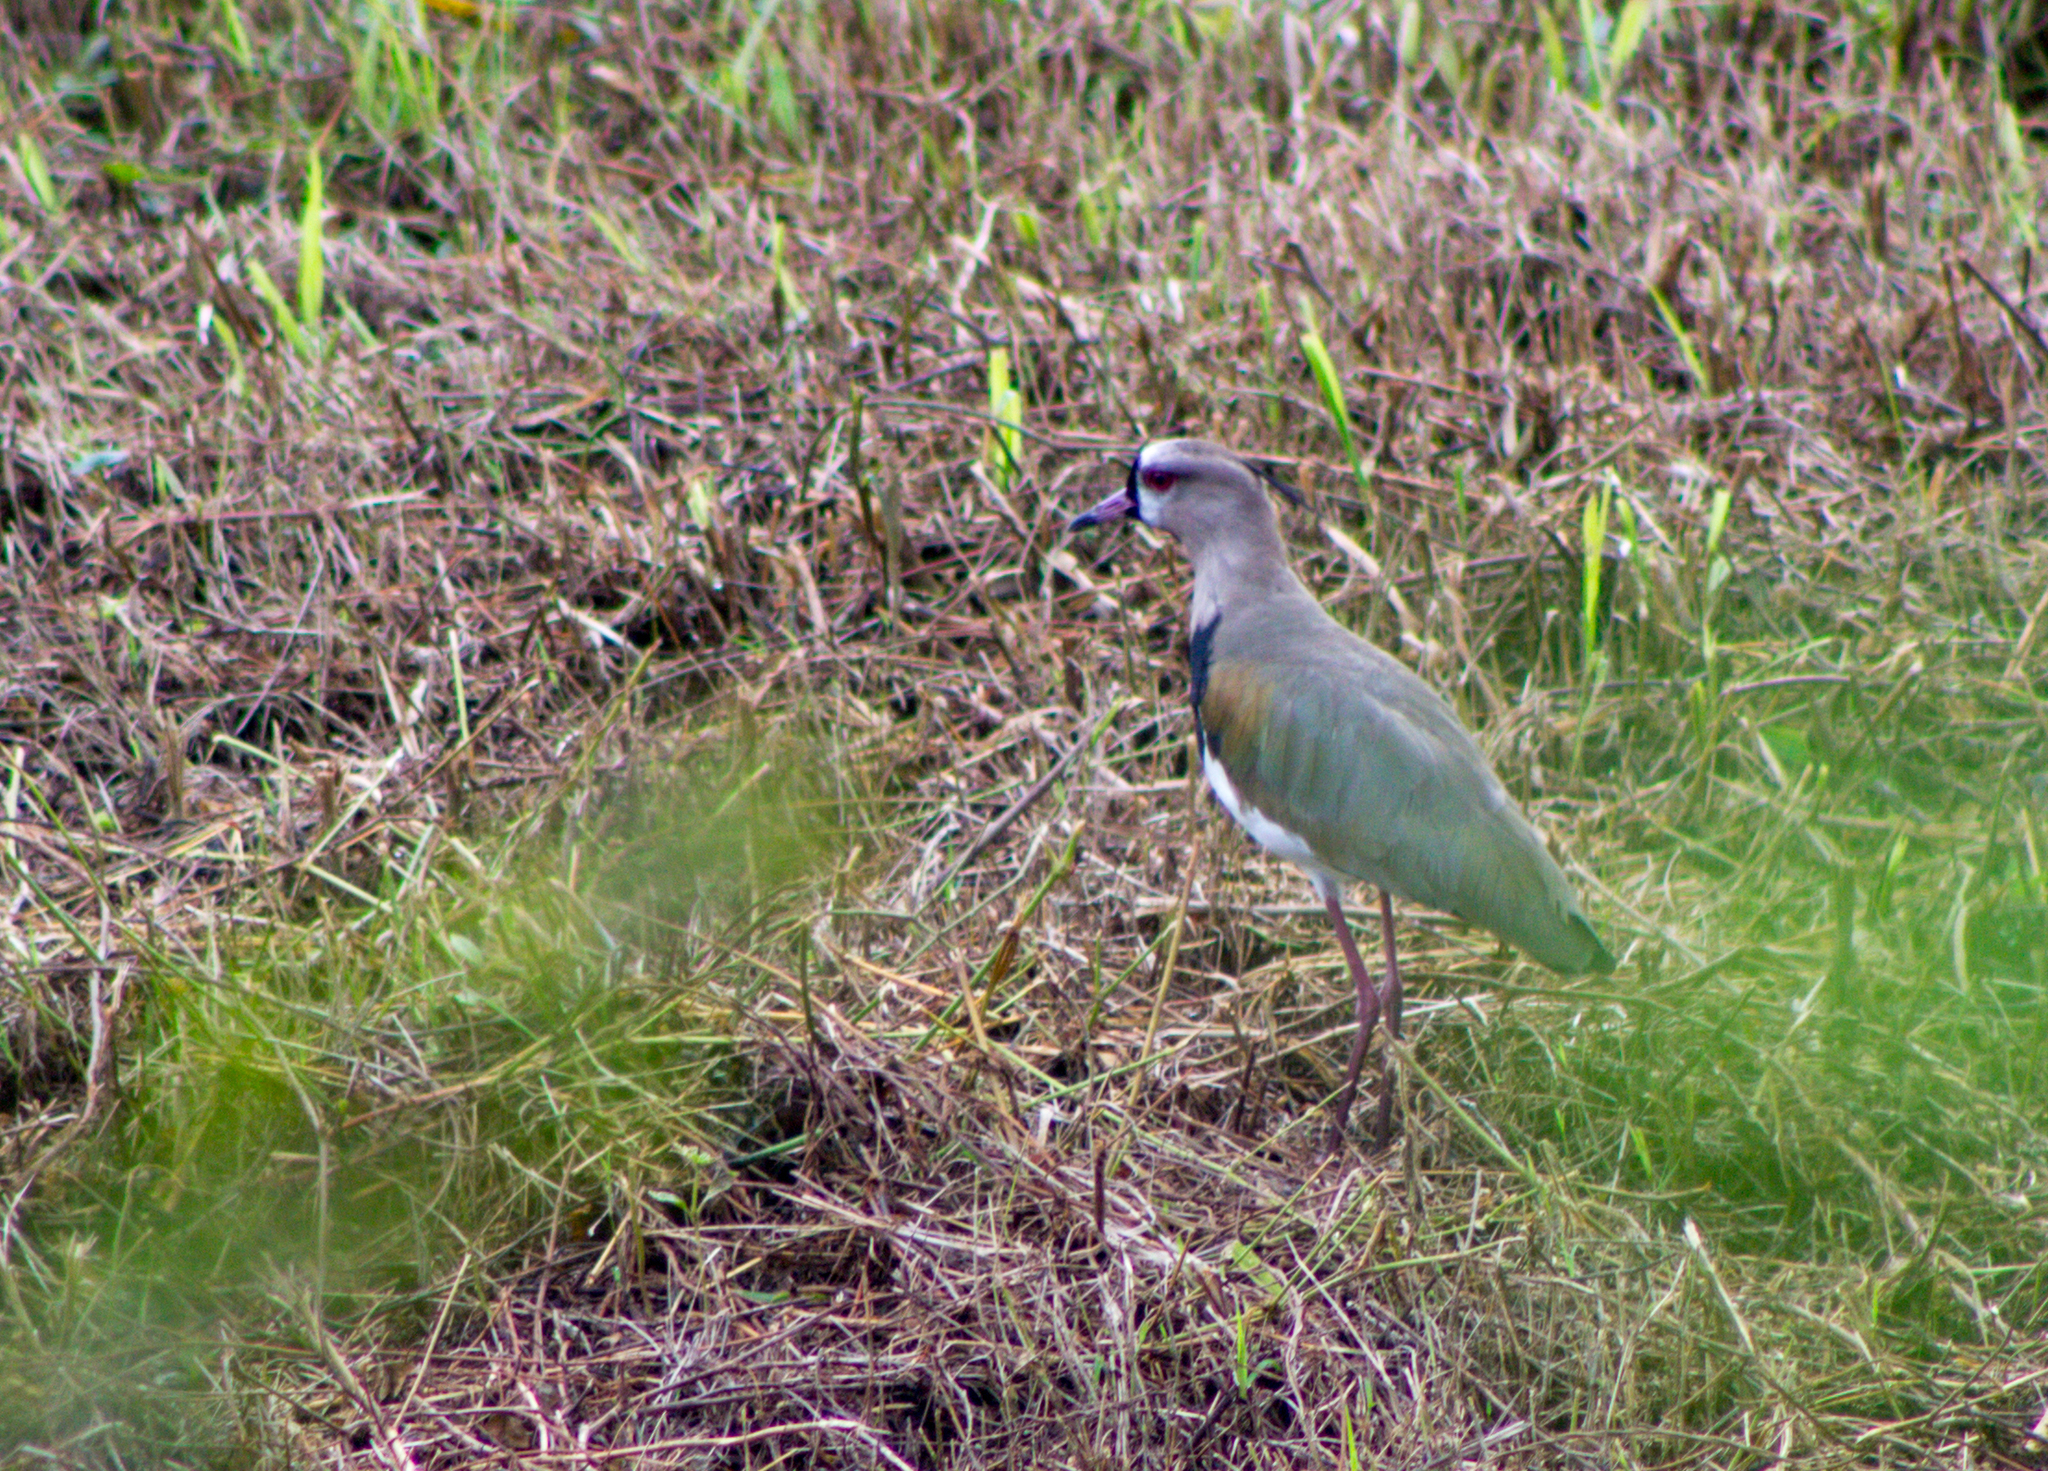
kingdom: Animalia
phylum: Chordata
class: Aves
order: Charadriiformes
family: Charadriidae
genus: Vanellus
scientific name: Vanellus chilensis
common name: Southern lapwing
